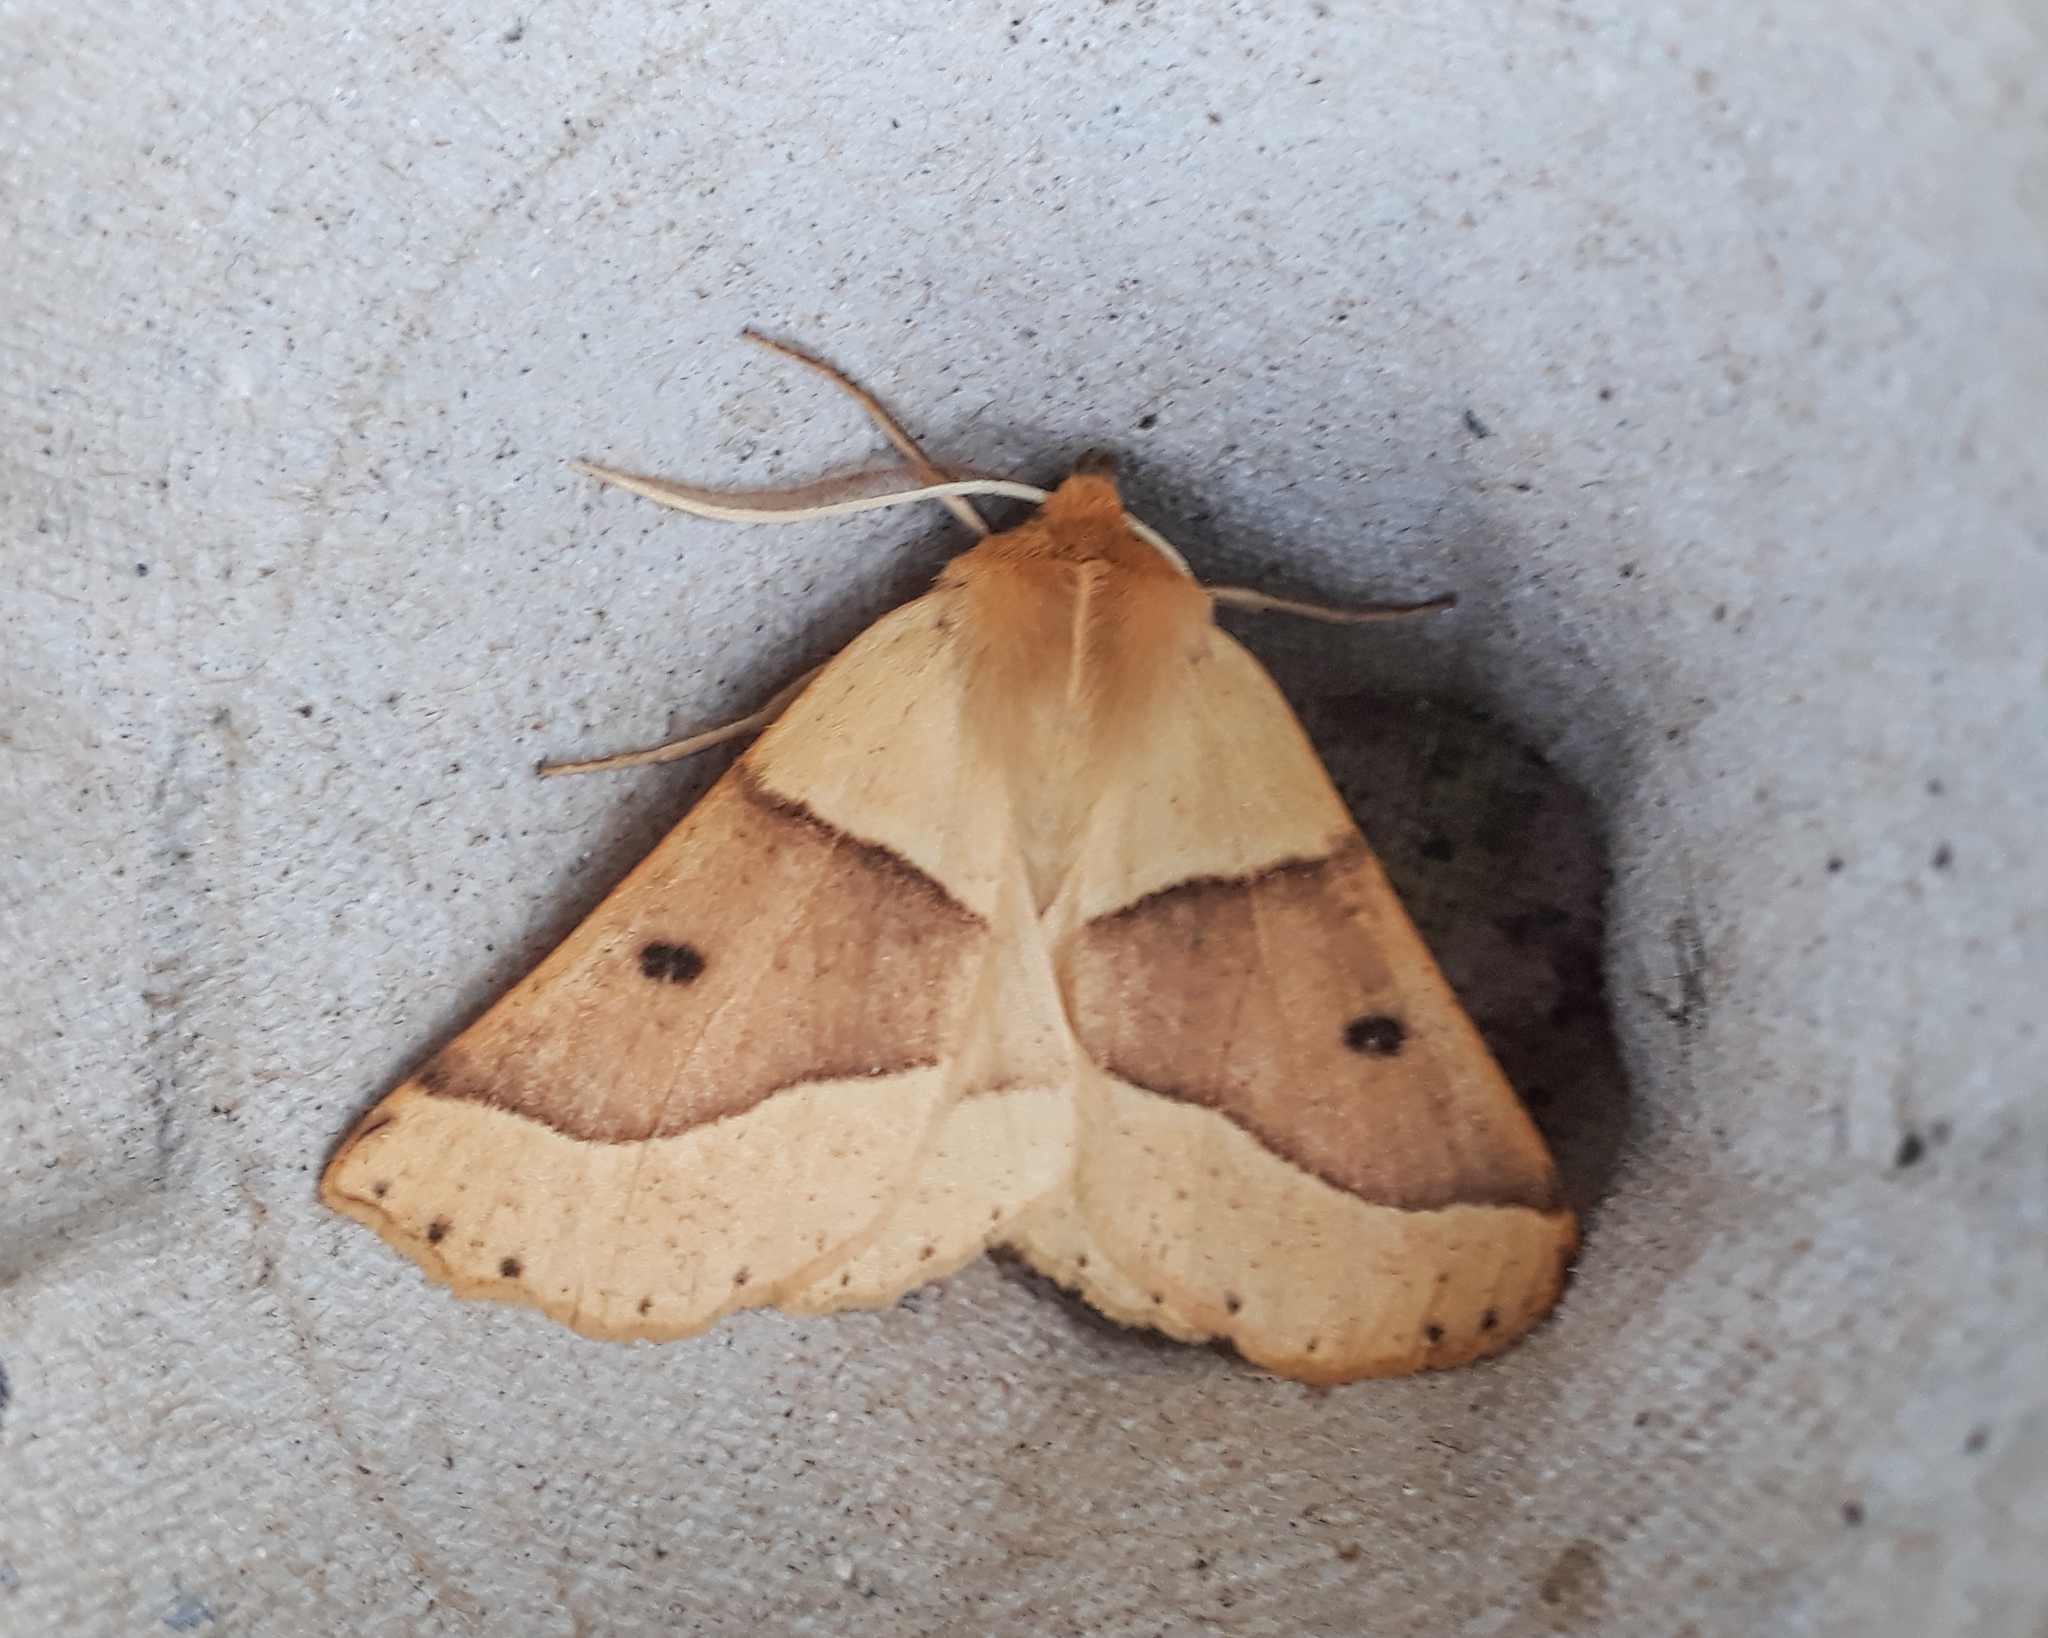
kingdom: Animalia
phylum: Arthropoda
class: Insecta
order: Lepidoptera
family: Geometridae
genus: Crocallis
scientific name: Crocallis elinguaria
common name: Scalloped oak
